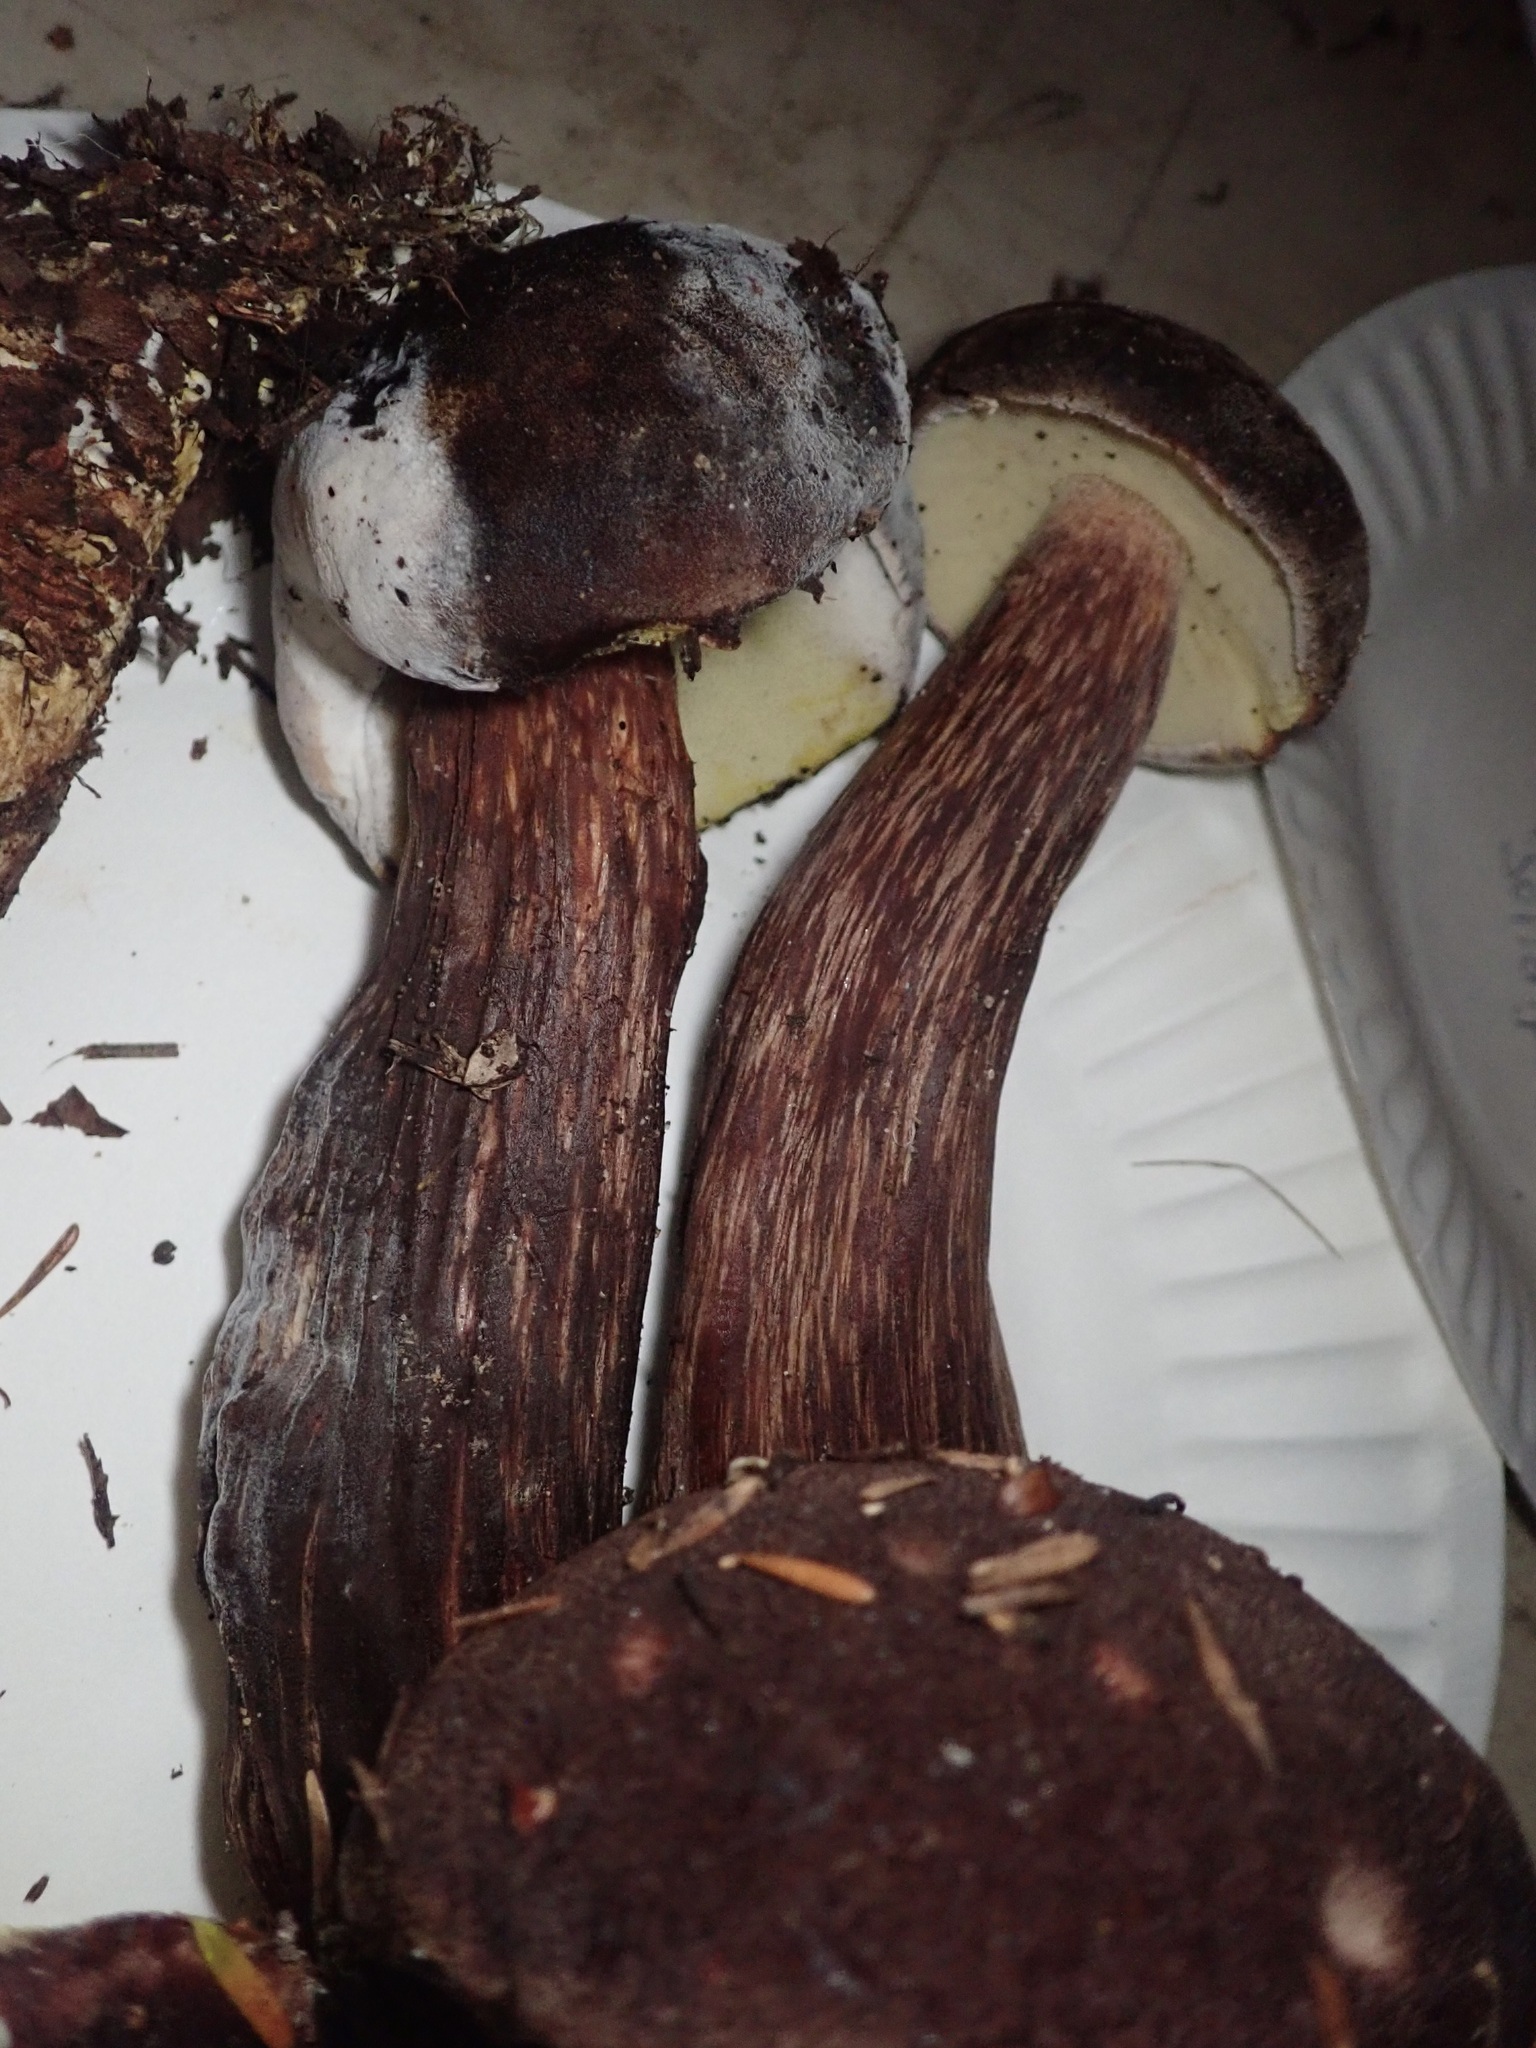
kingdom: Fungi
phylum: Basidiomycota
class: Agaricomycetes
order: Boletales
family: Boletaceae
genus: Aureoboletus
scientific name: Aureoboletus mirabilis
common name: Admirable bolete
